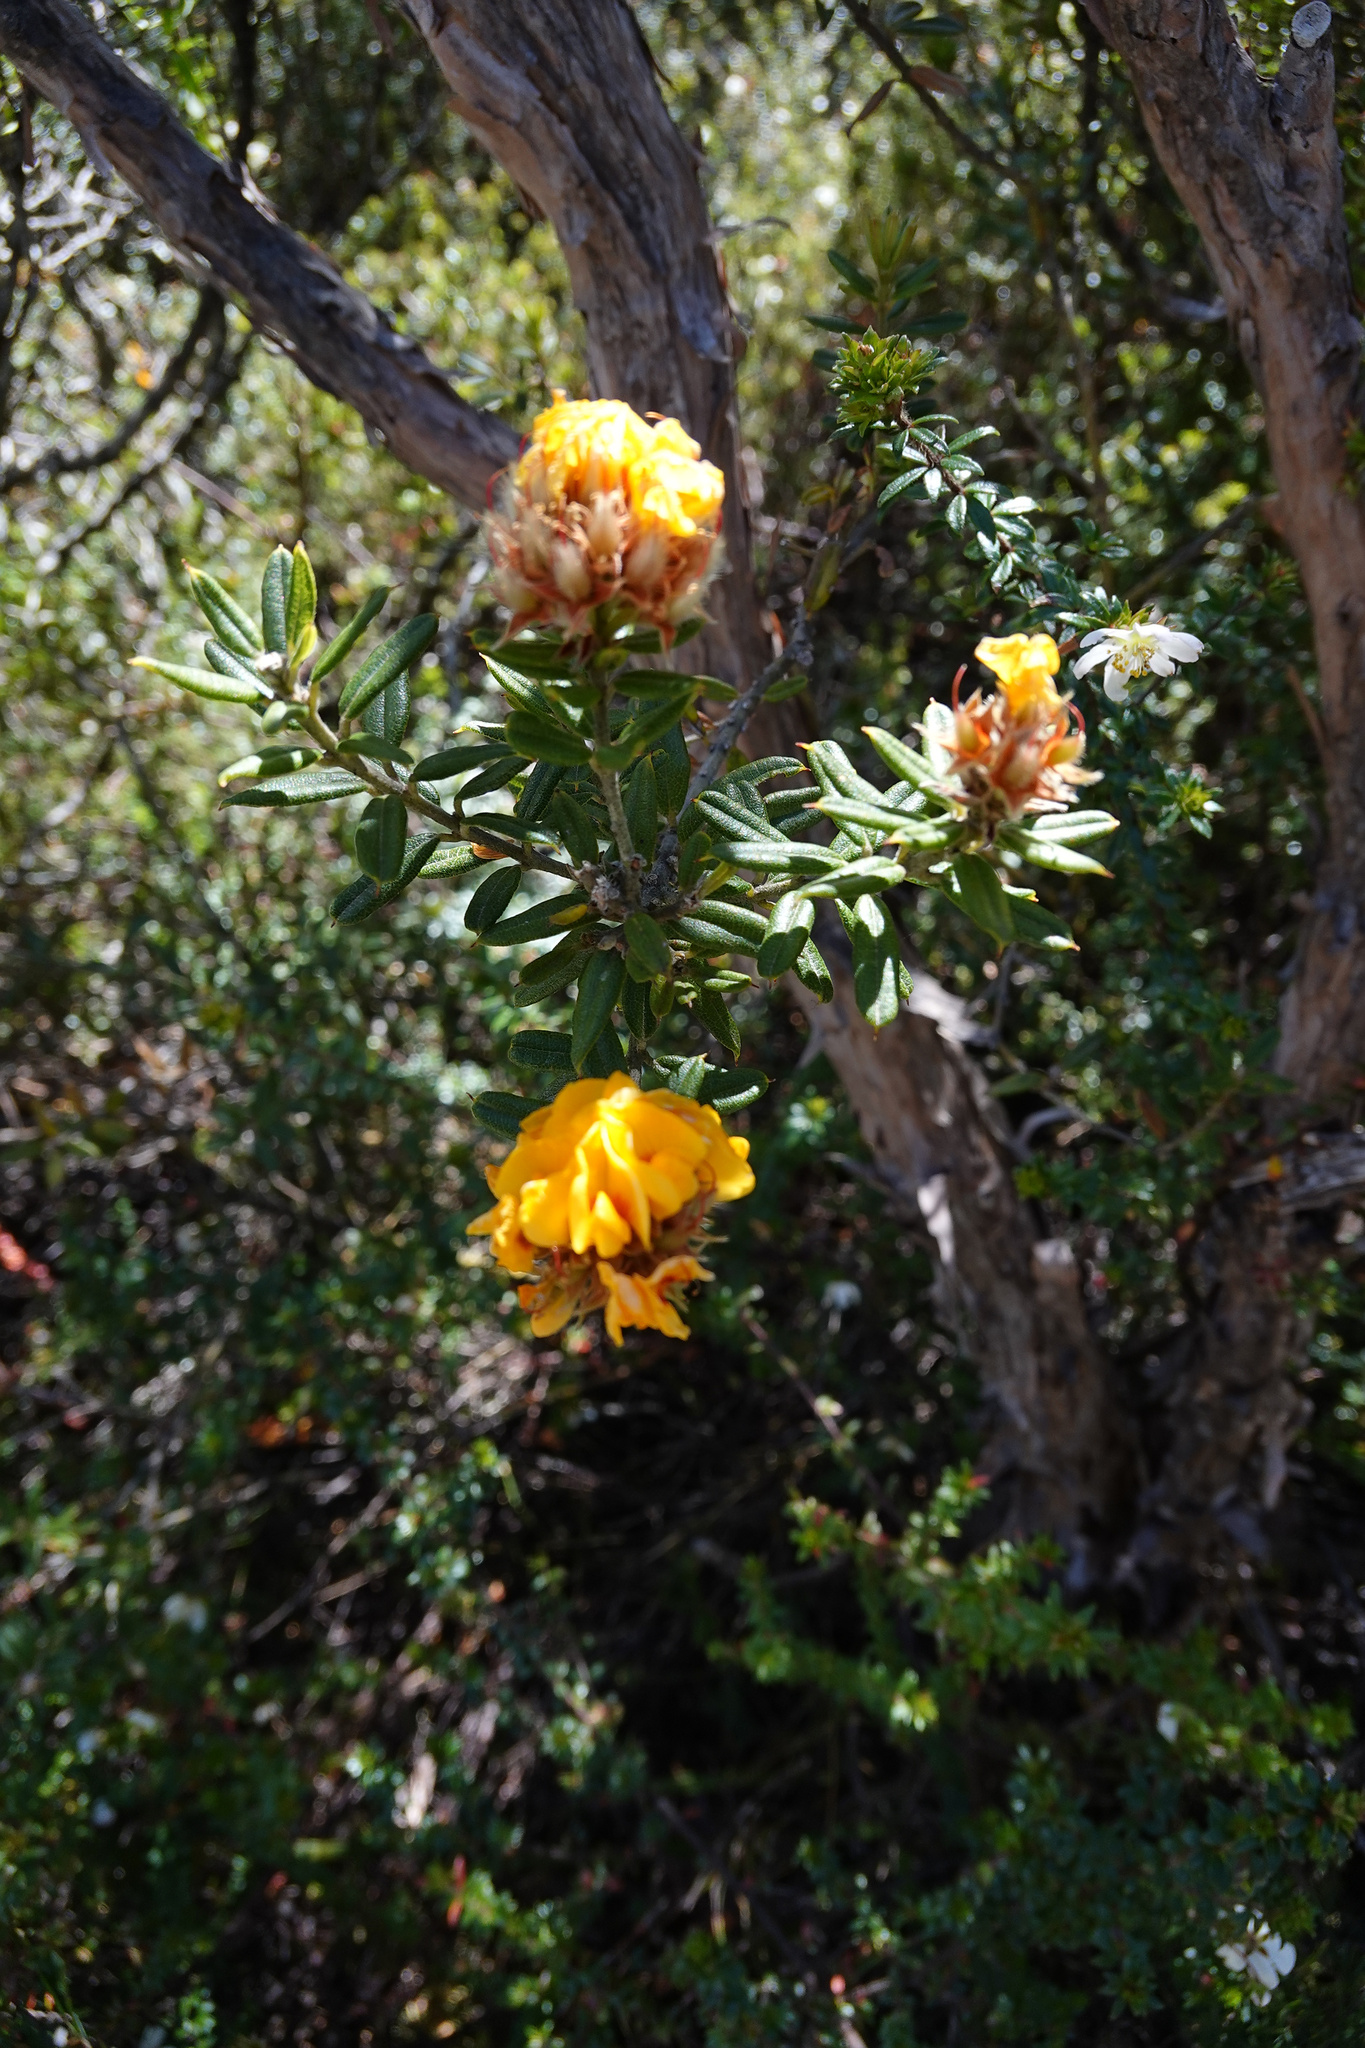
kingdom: Plantae
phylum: Tracheophyta
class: Magnoliopsida
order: Fabales
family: Fabaceae
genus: Oxylobium
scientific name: Oxylobium ellipticum
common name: Golden shaggy-pea
